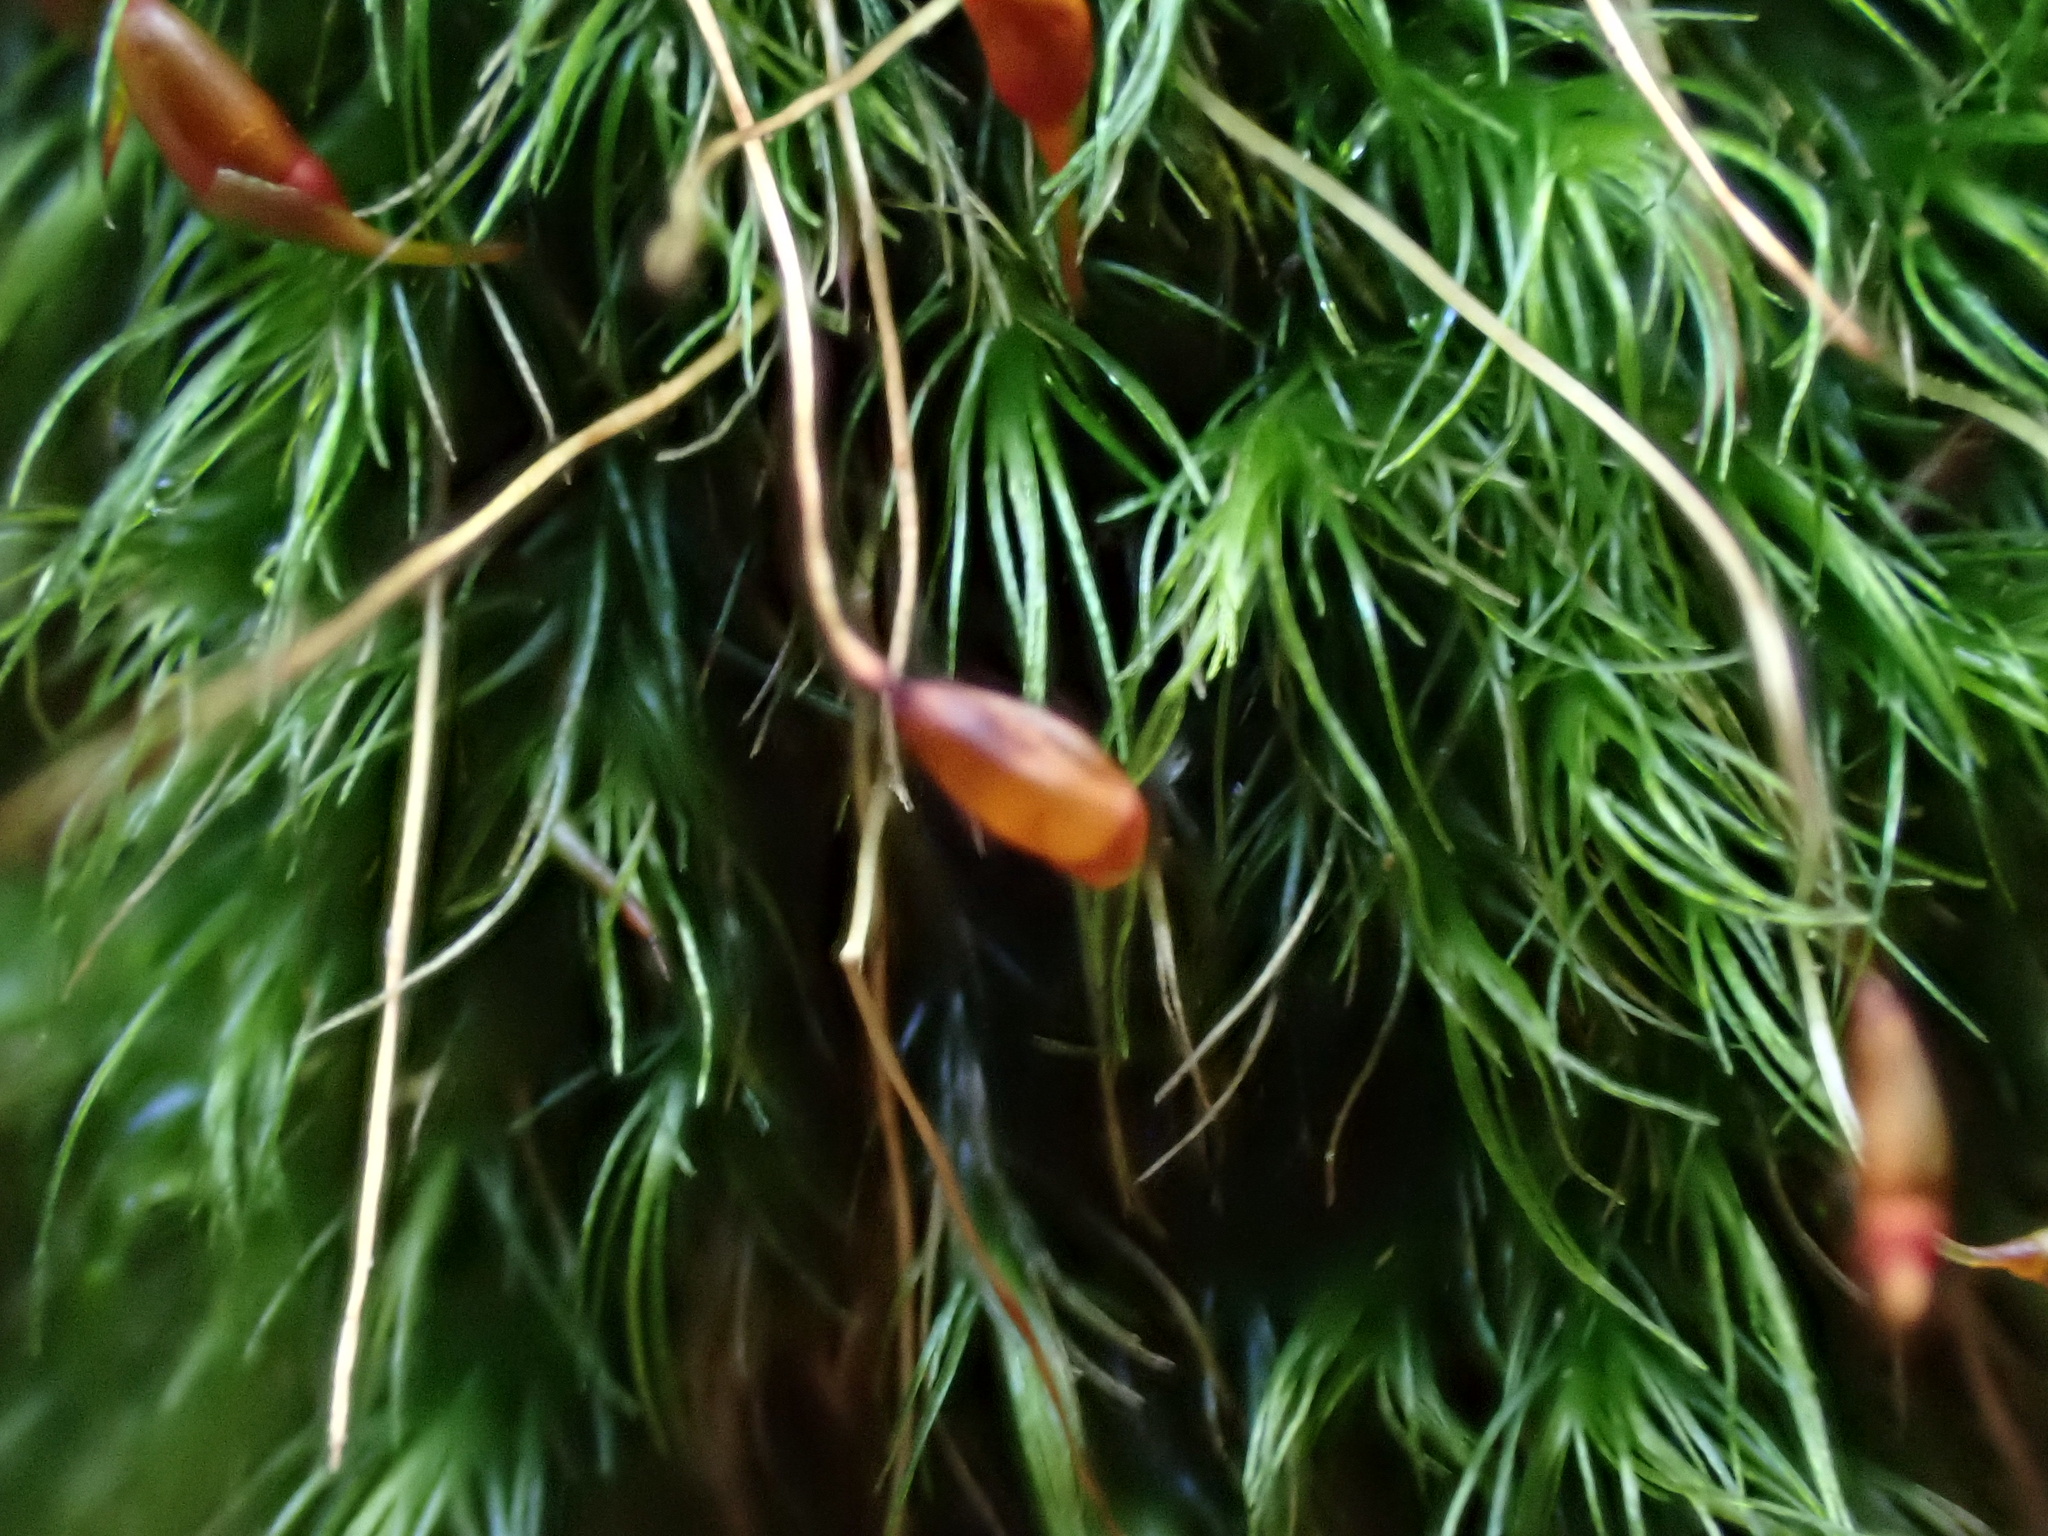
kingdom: Plantae
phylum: Bryophyta
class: Bryopsida
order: Dicranales
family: Dicranellaceae
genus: Dicranella
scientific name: Dicranella heteromalla
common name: Silky forklet moss
